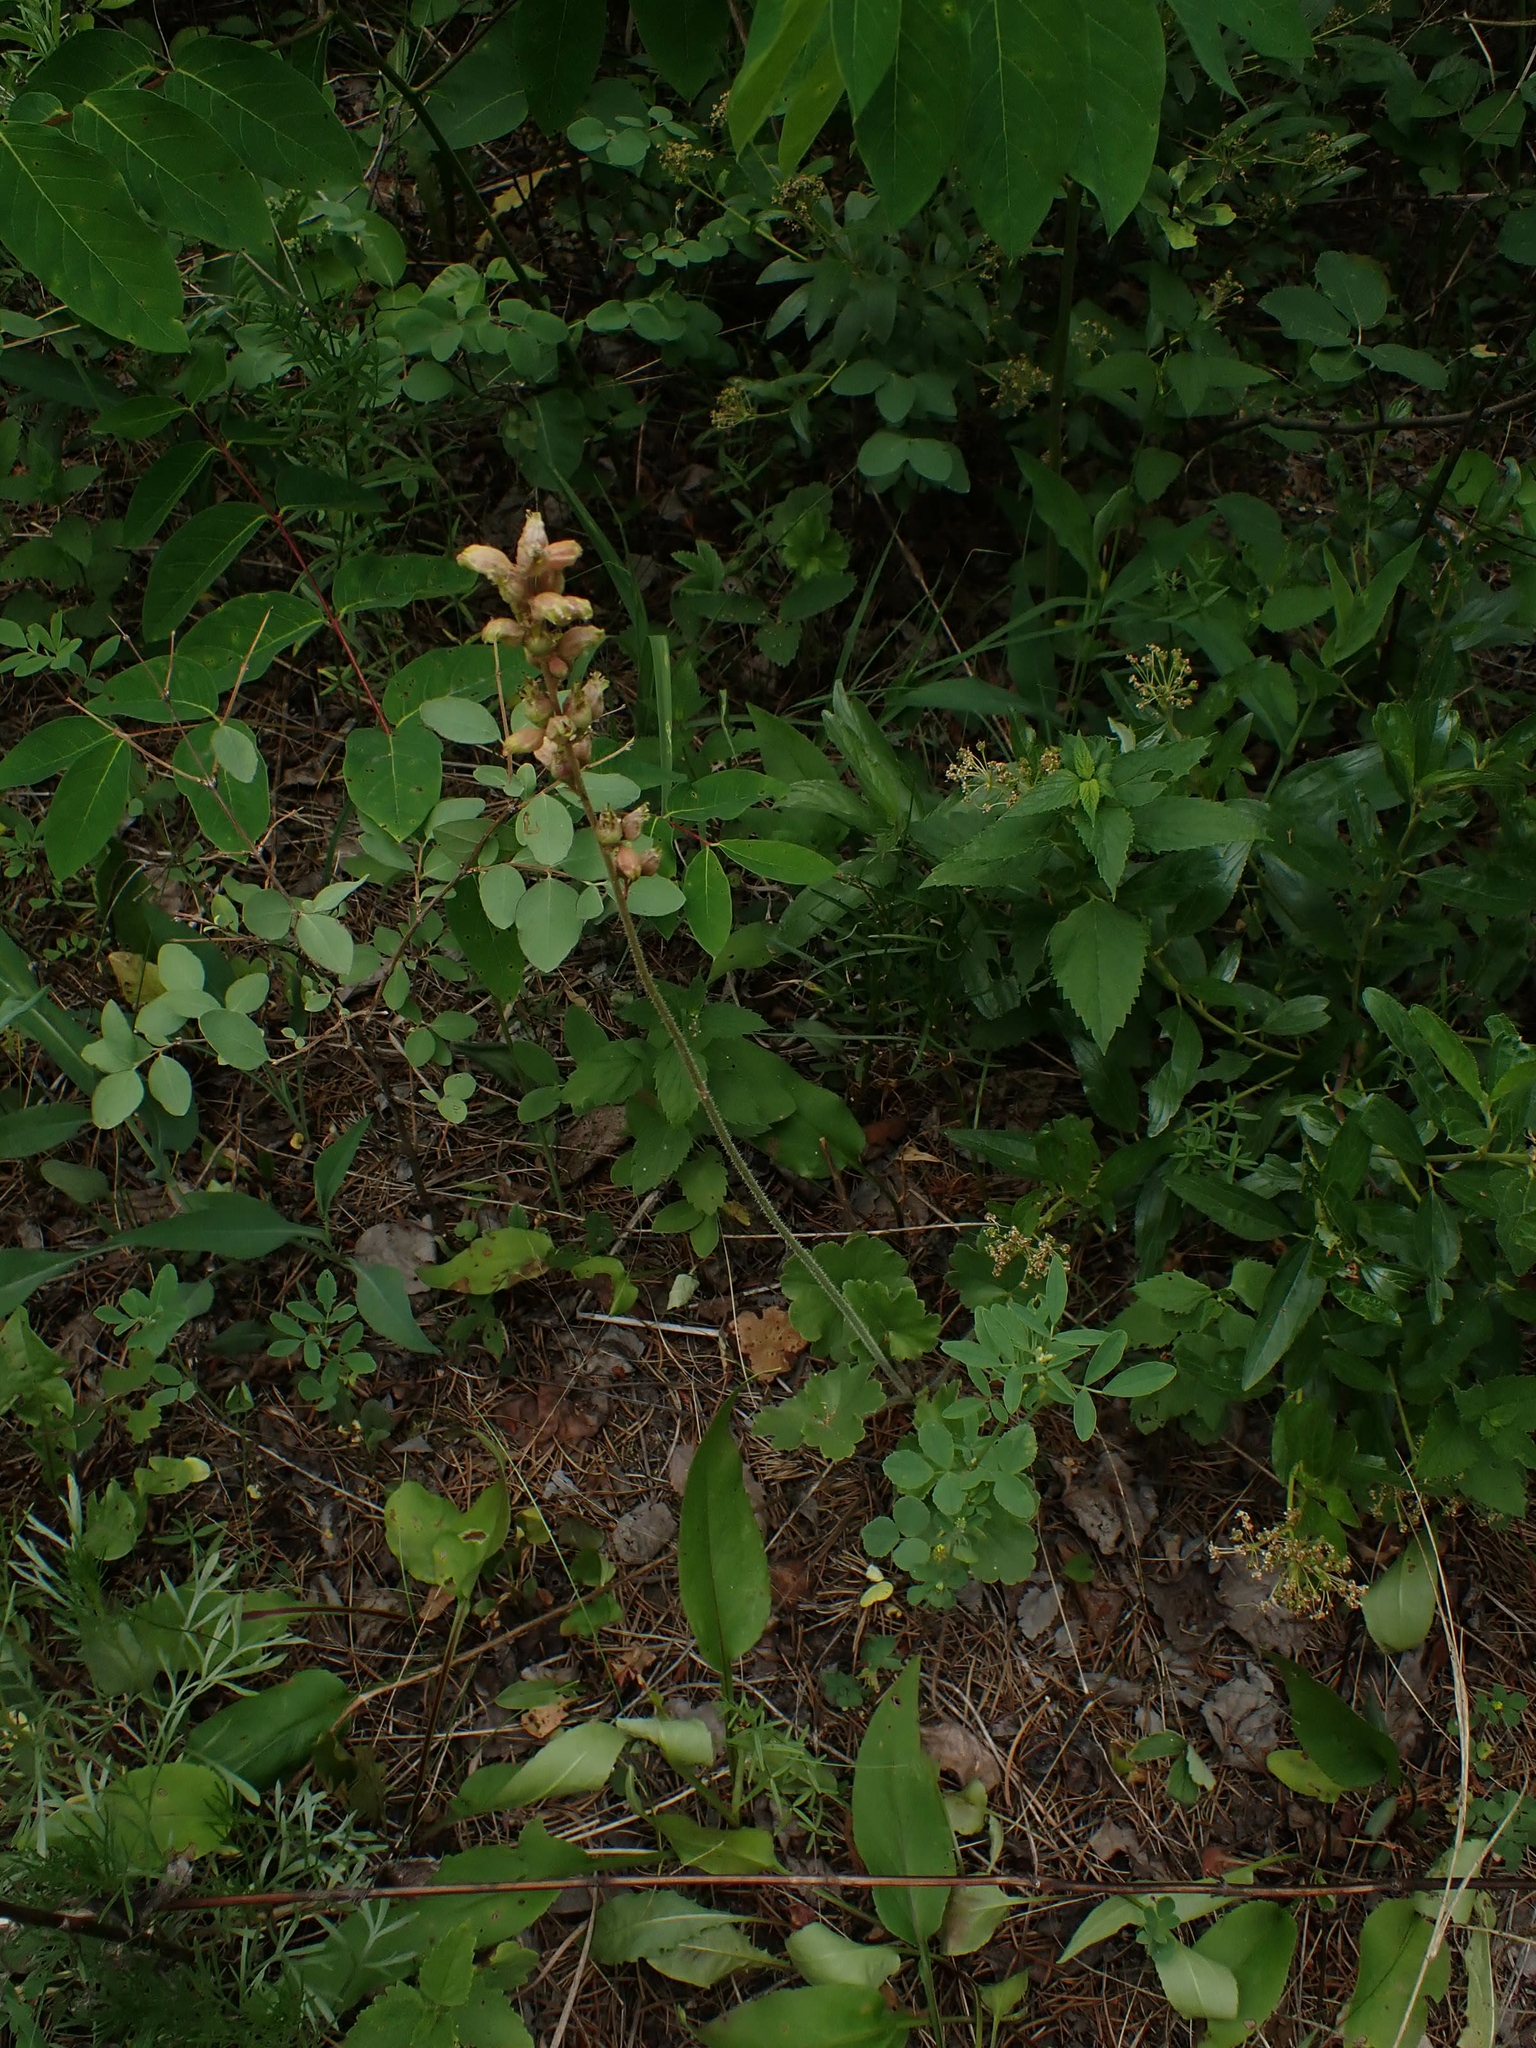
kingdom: Plantae
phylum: Tracheophyta
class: Magnoliopsida
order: Saxifragales
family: Saxifragaceae
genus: Heuchera
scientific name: Heuchera richardsonii
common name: Richardson's alumroot
